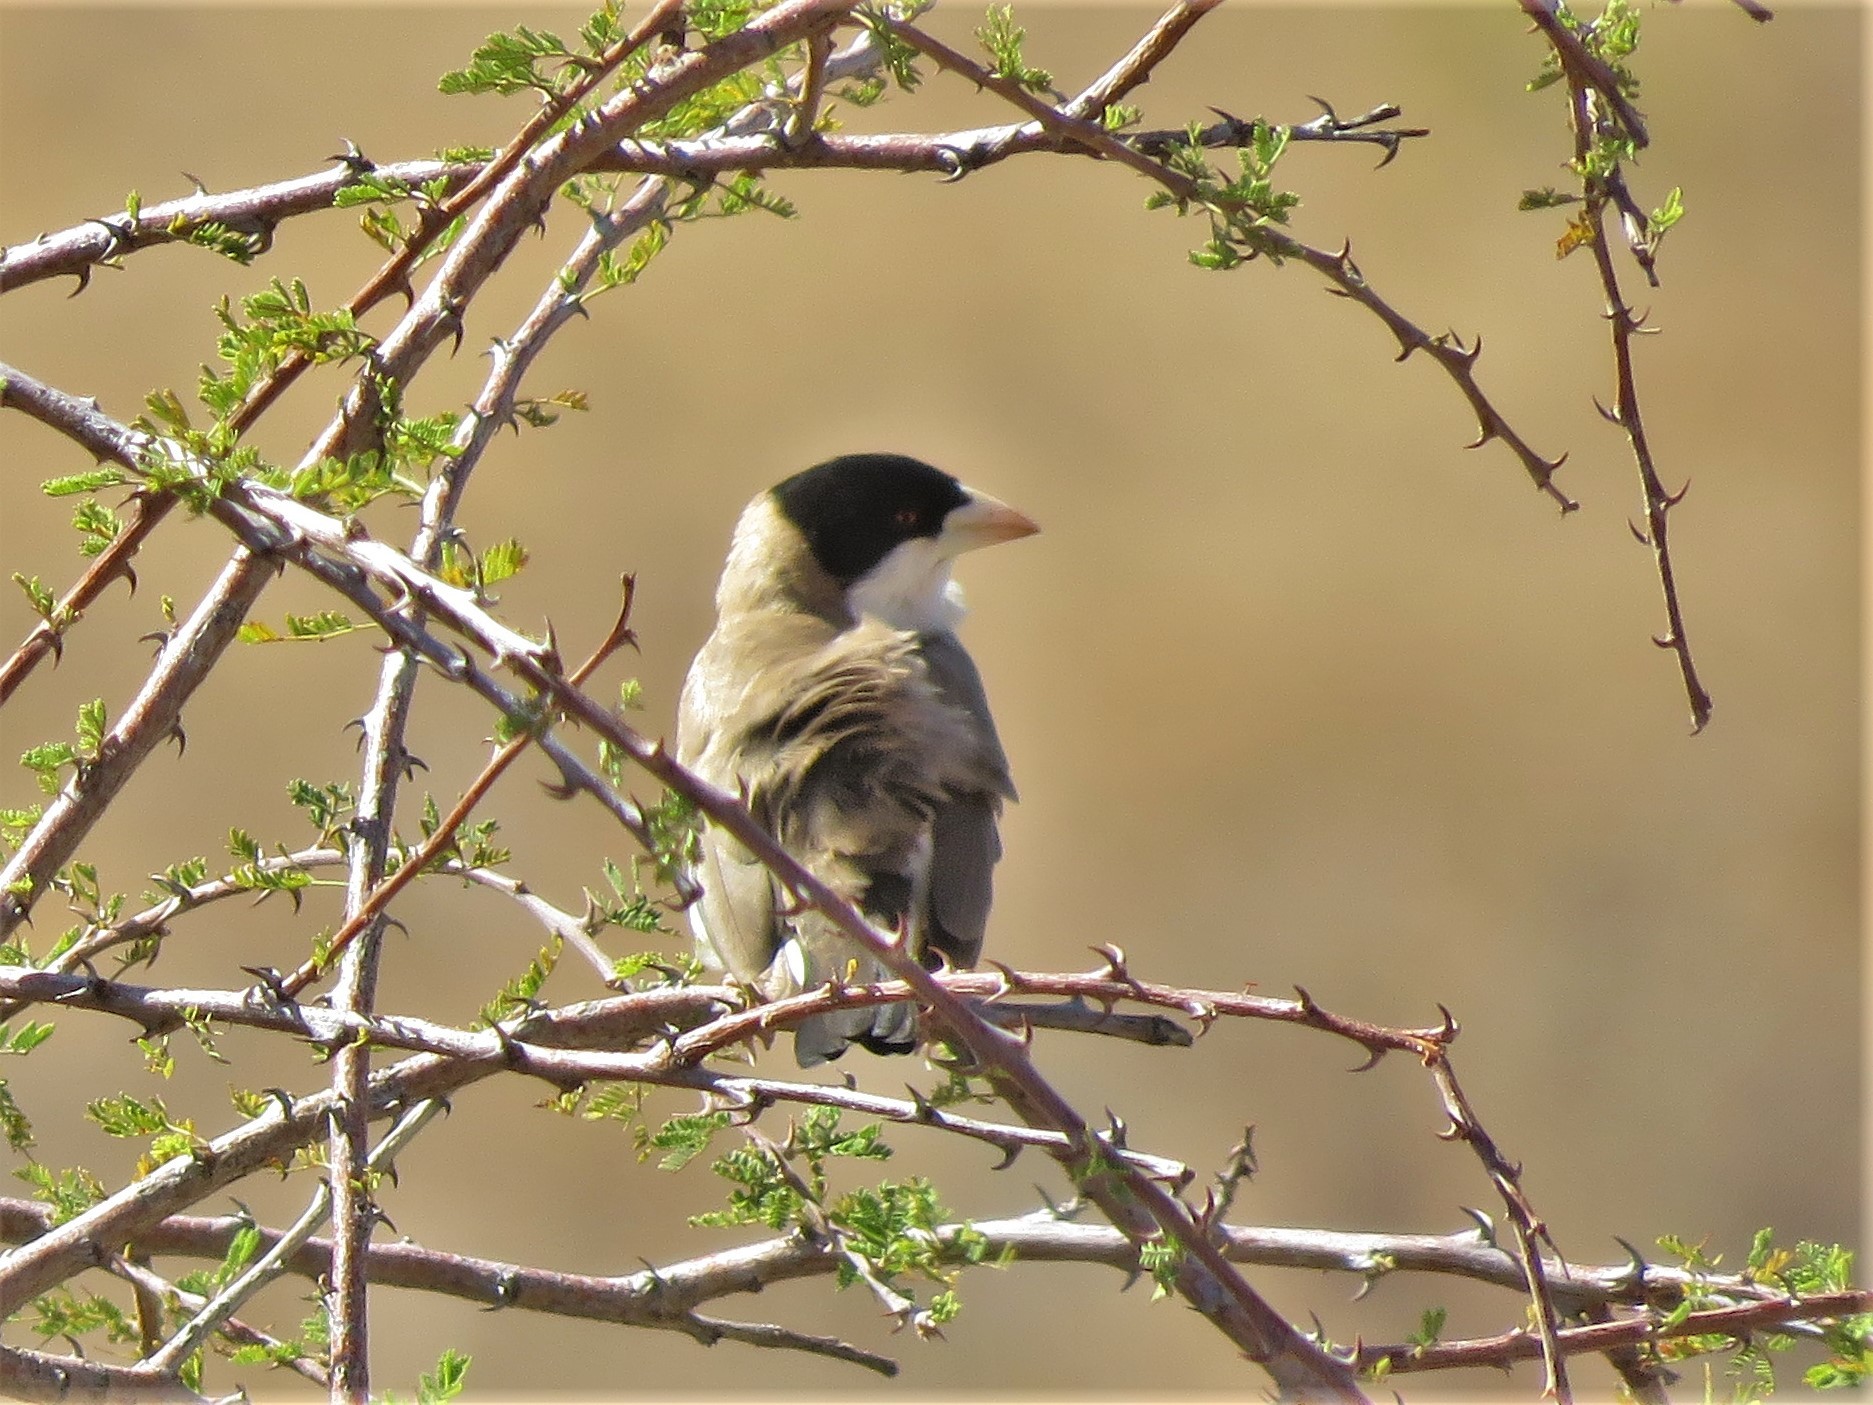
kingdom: Animalia
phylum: Chordata
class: Aves
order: Passeriformes
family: Passeridae
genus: Pseudonigrita
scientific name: Pseudonigrita cabanisi
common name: Black-capped social weaver
